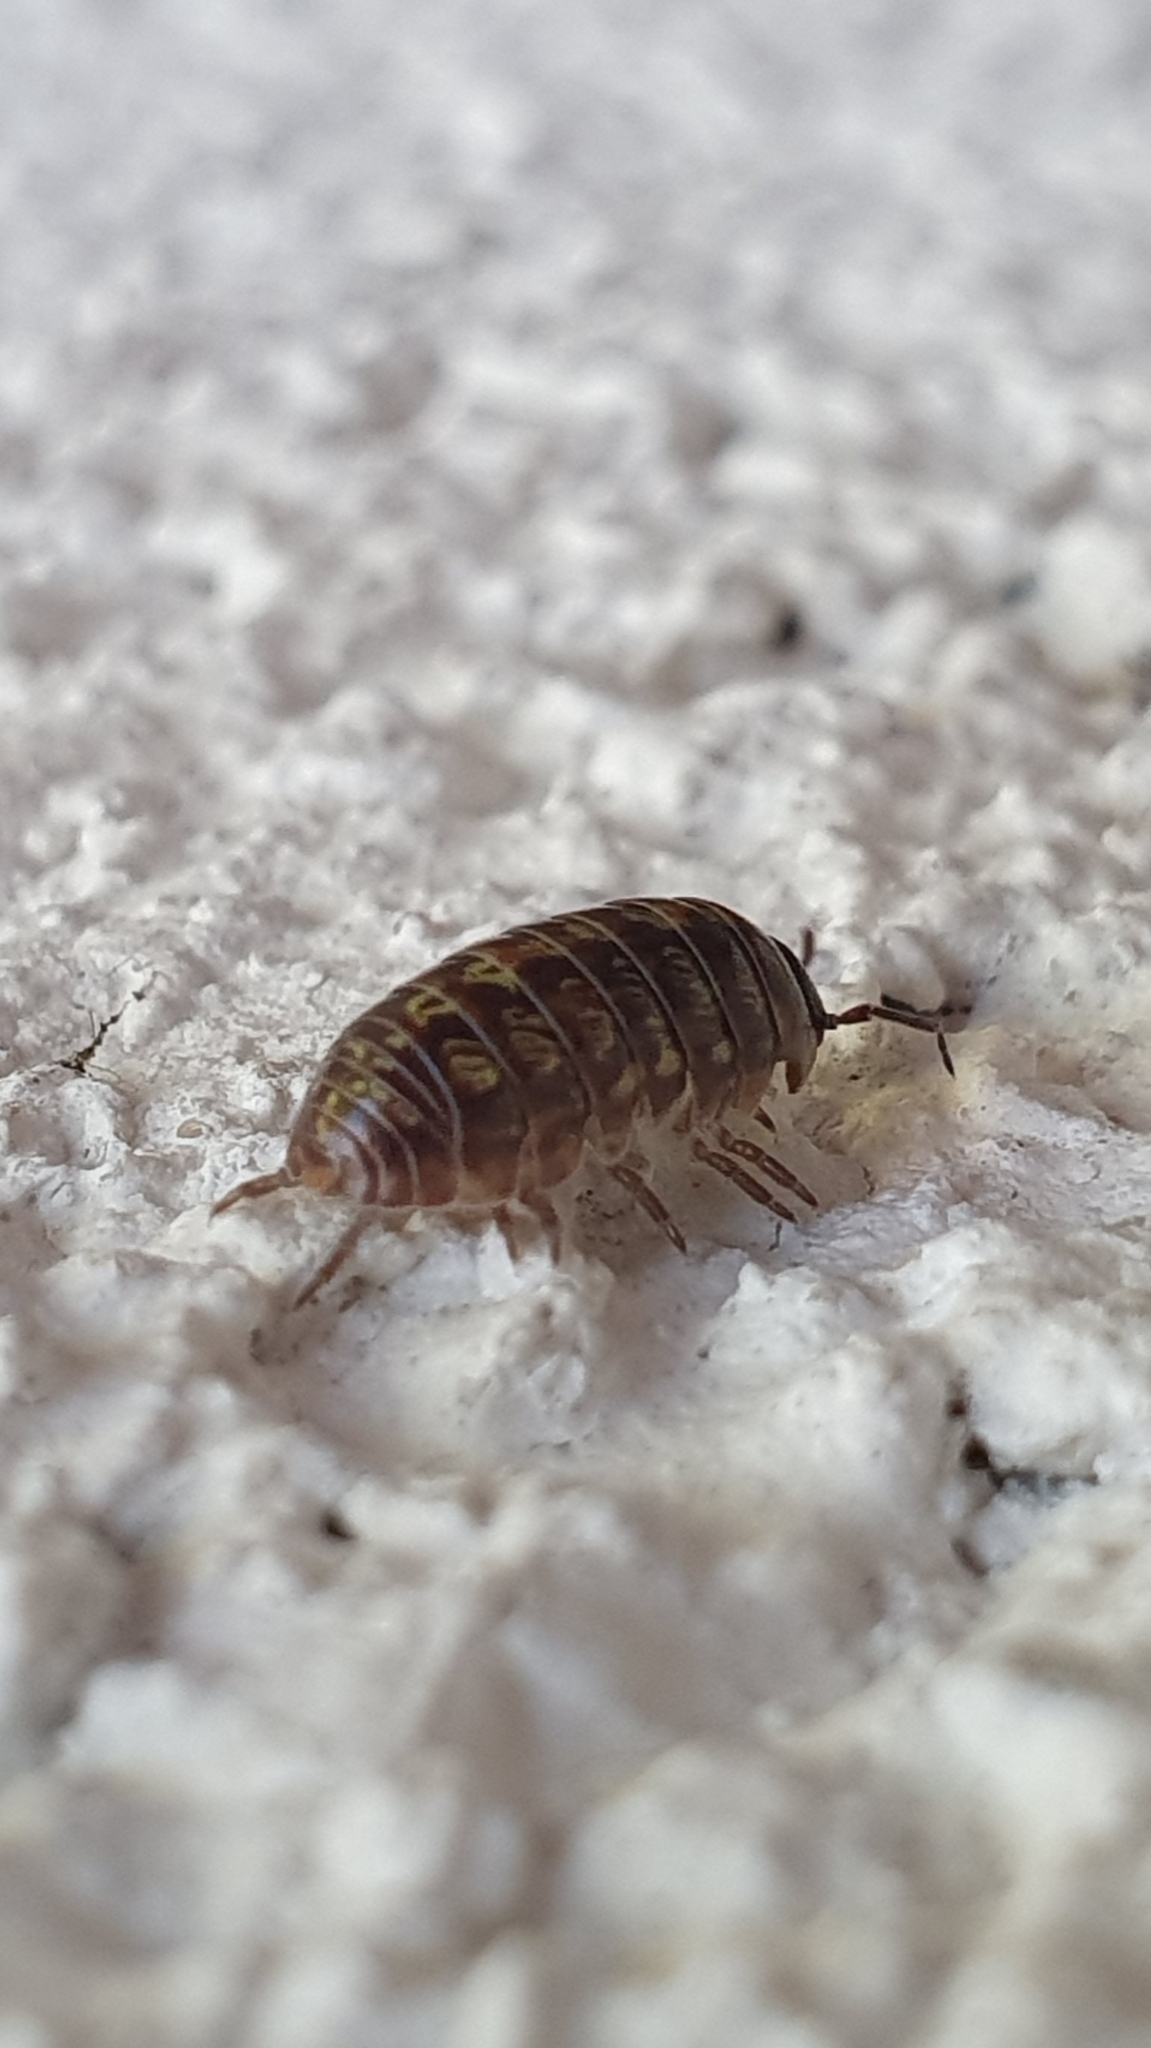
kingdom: Animalia
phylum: Arthropoda
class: Malacostraca
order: Isopoda
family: Armadillidiidae
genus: Armadillidium
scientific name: Armadillidium vulgare
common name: Common pill woodlouse
